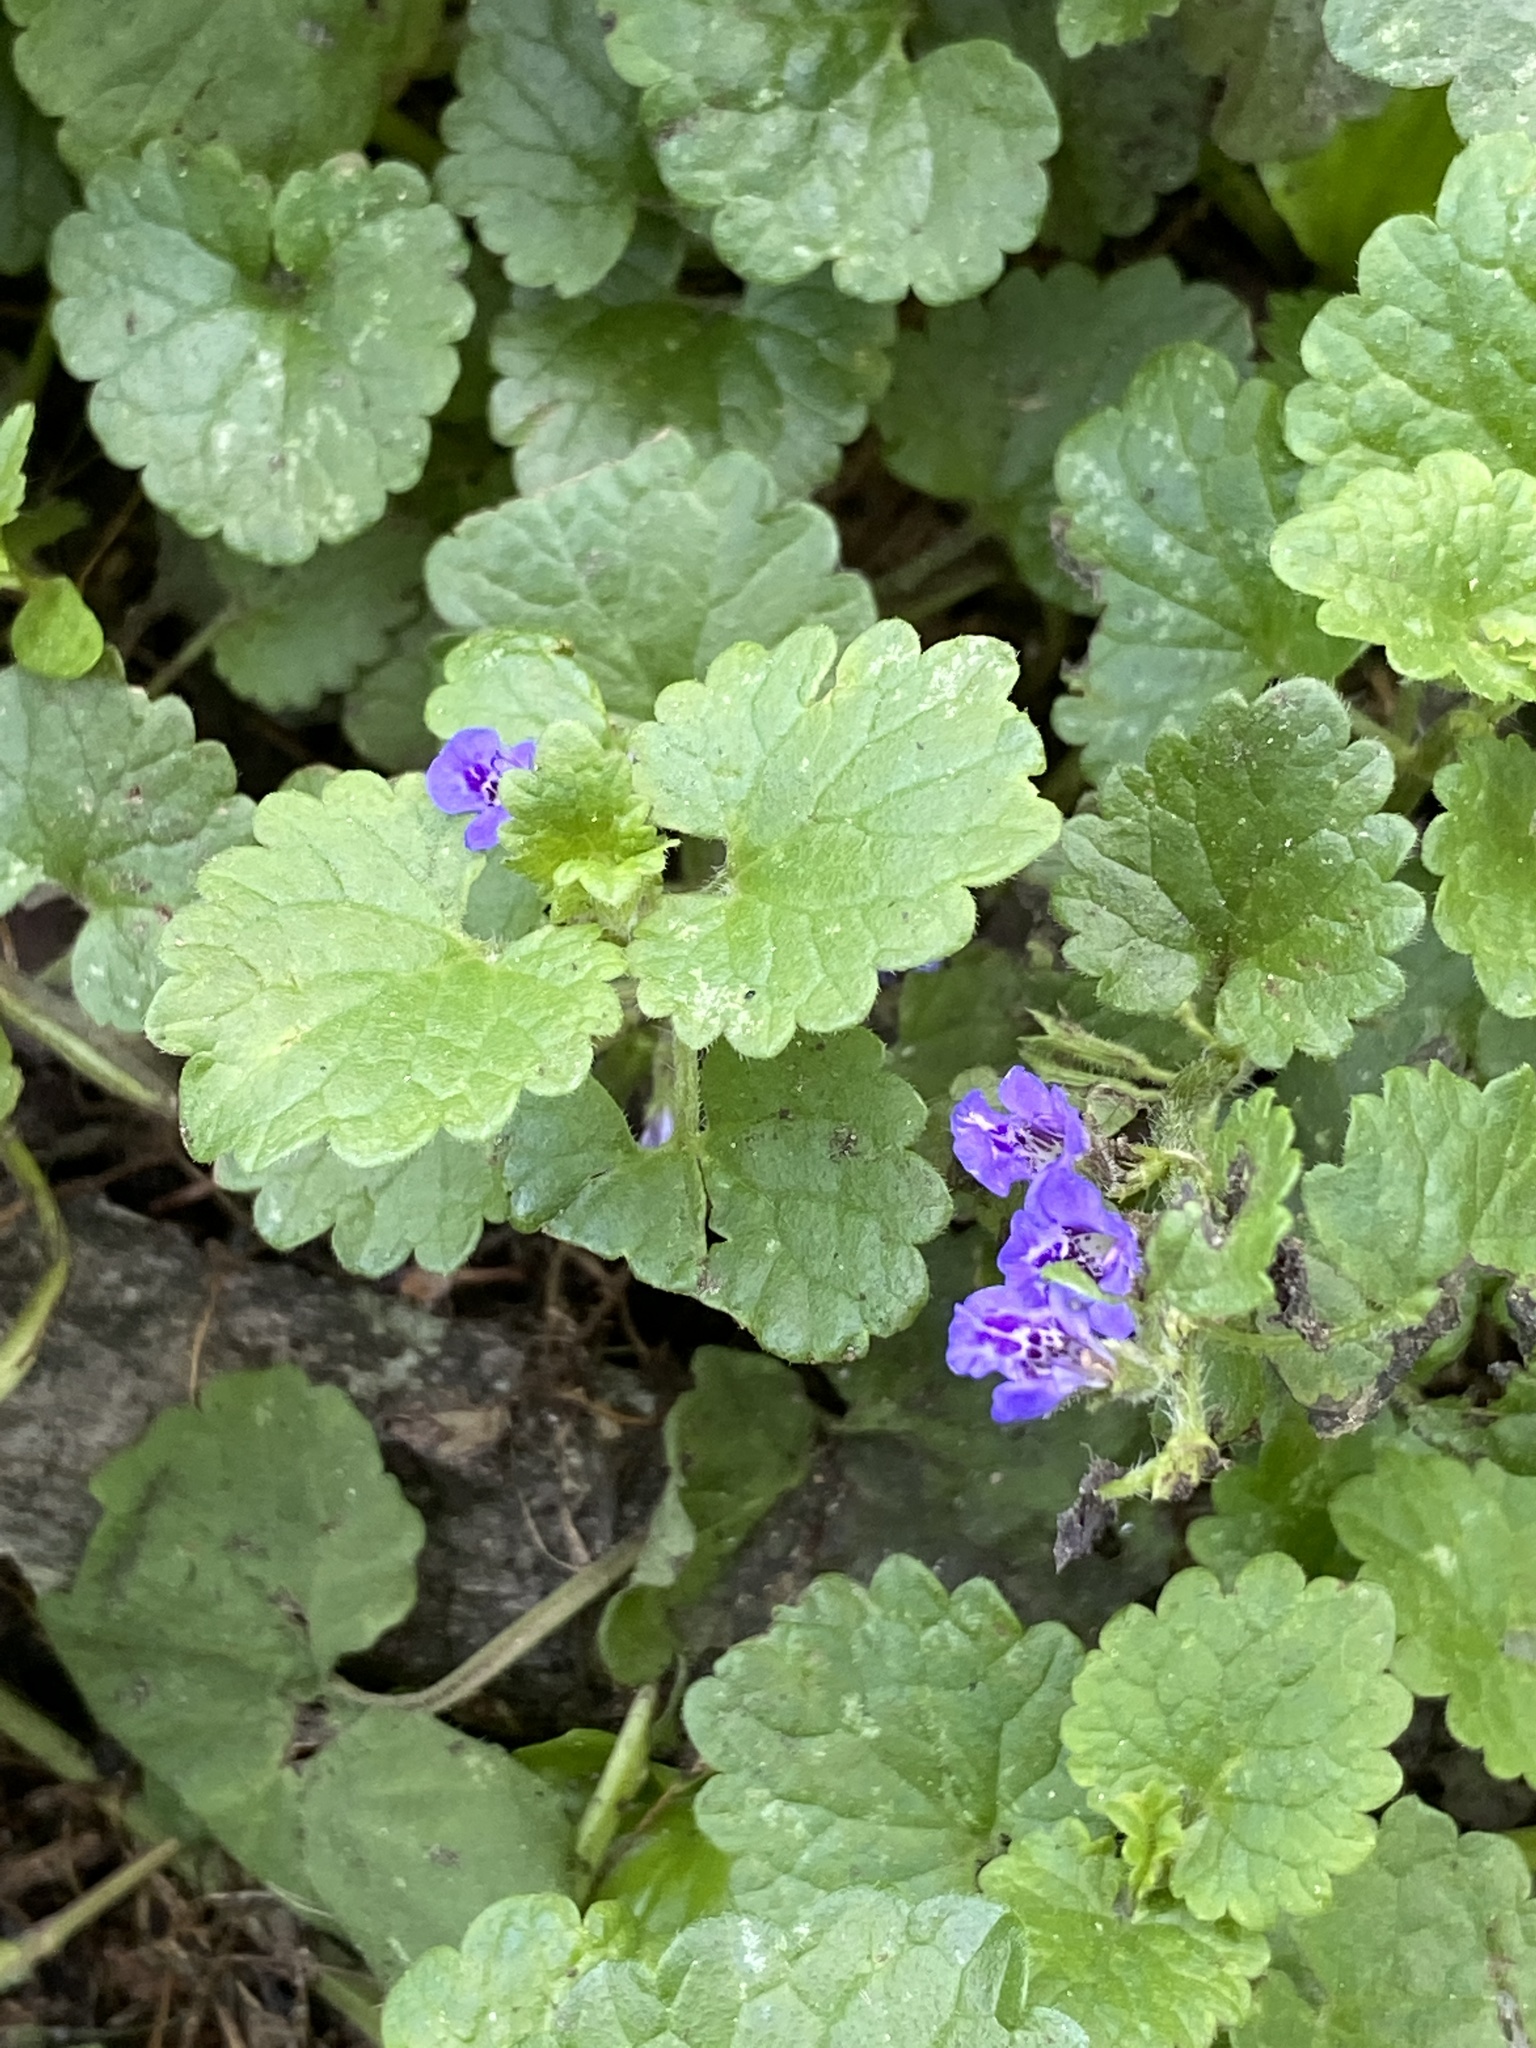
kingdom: Plantae
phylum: Tracheophyta
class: Magnoliopsida
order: Lamiales
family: Lamiaceae
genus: Glechoma
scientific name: Glechoma hederacea
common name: Ground ivy
